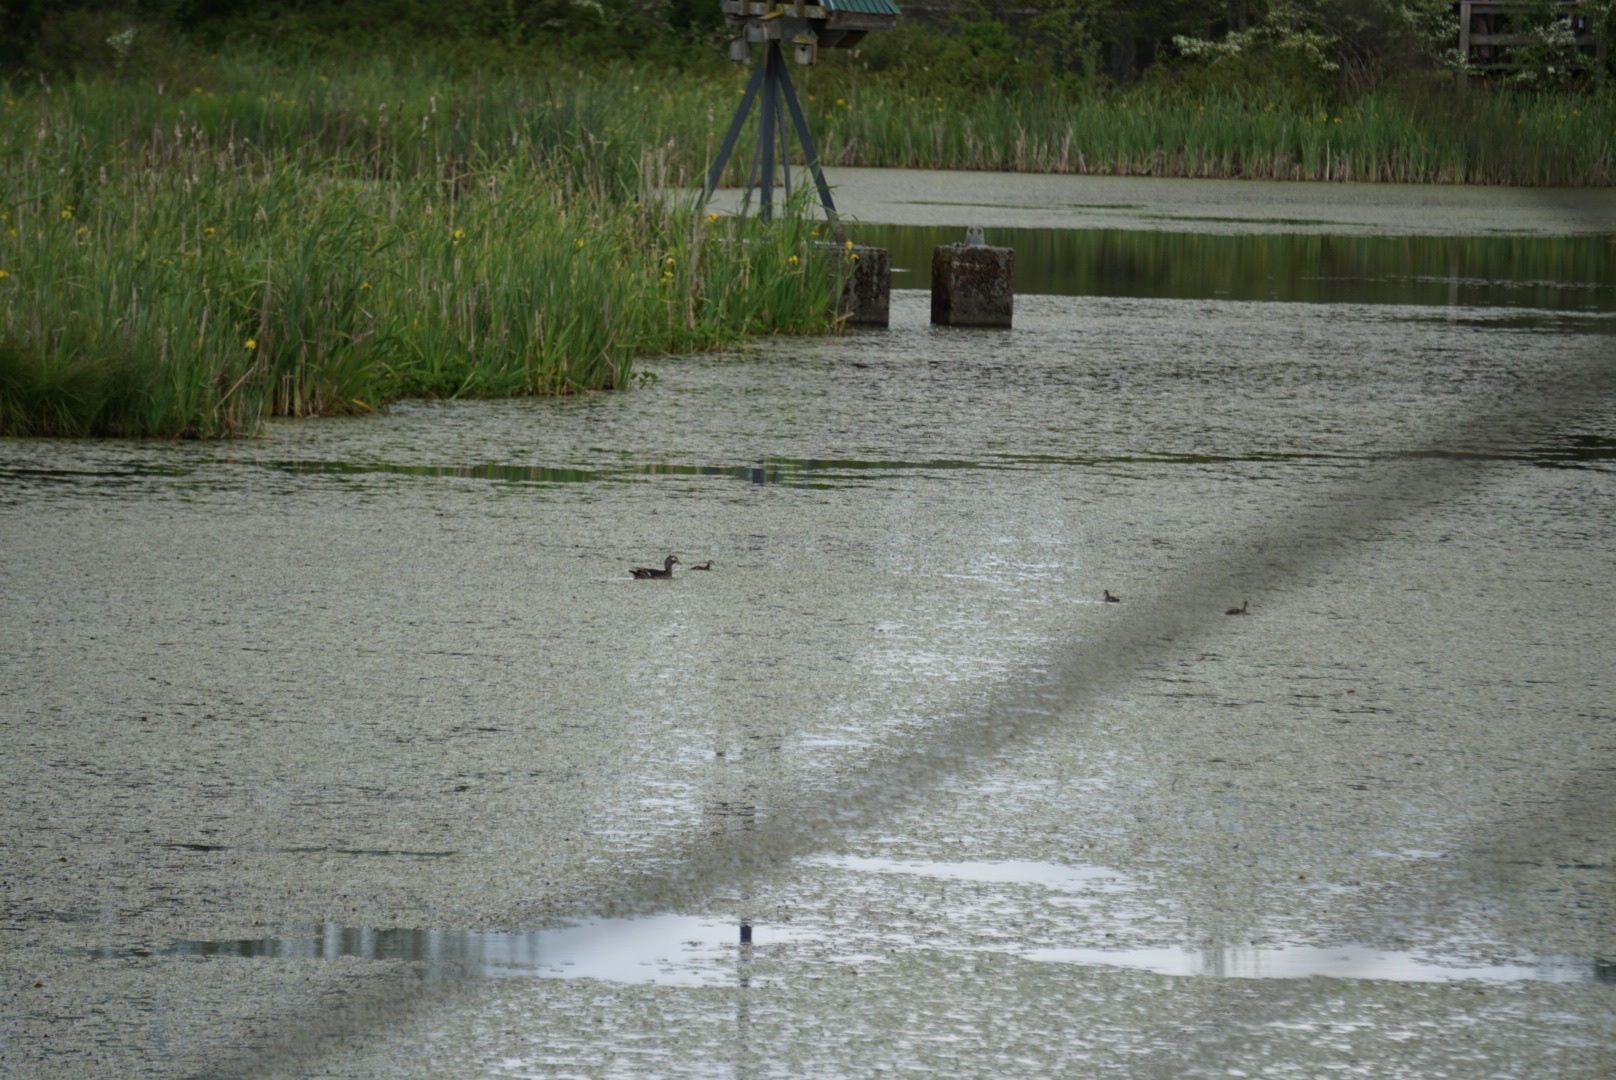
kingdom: Animalia
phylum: Chordata
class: Aves
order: Anseriformes
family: Anatidae
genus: Aix
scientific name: Aix sponsa
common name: Wood duck
